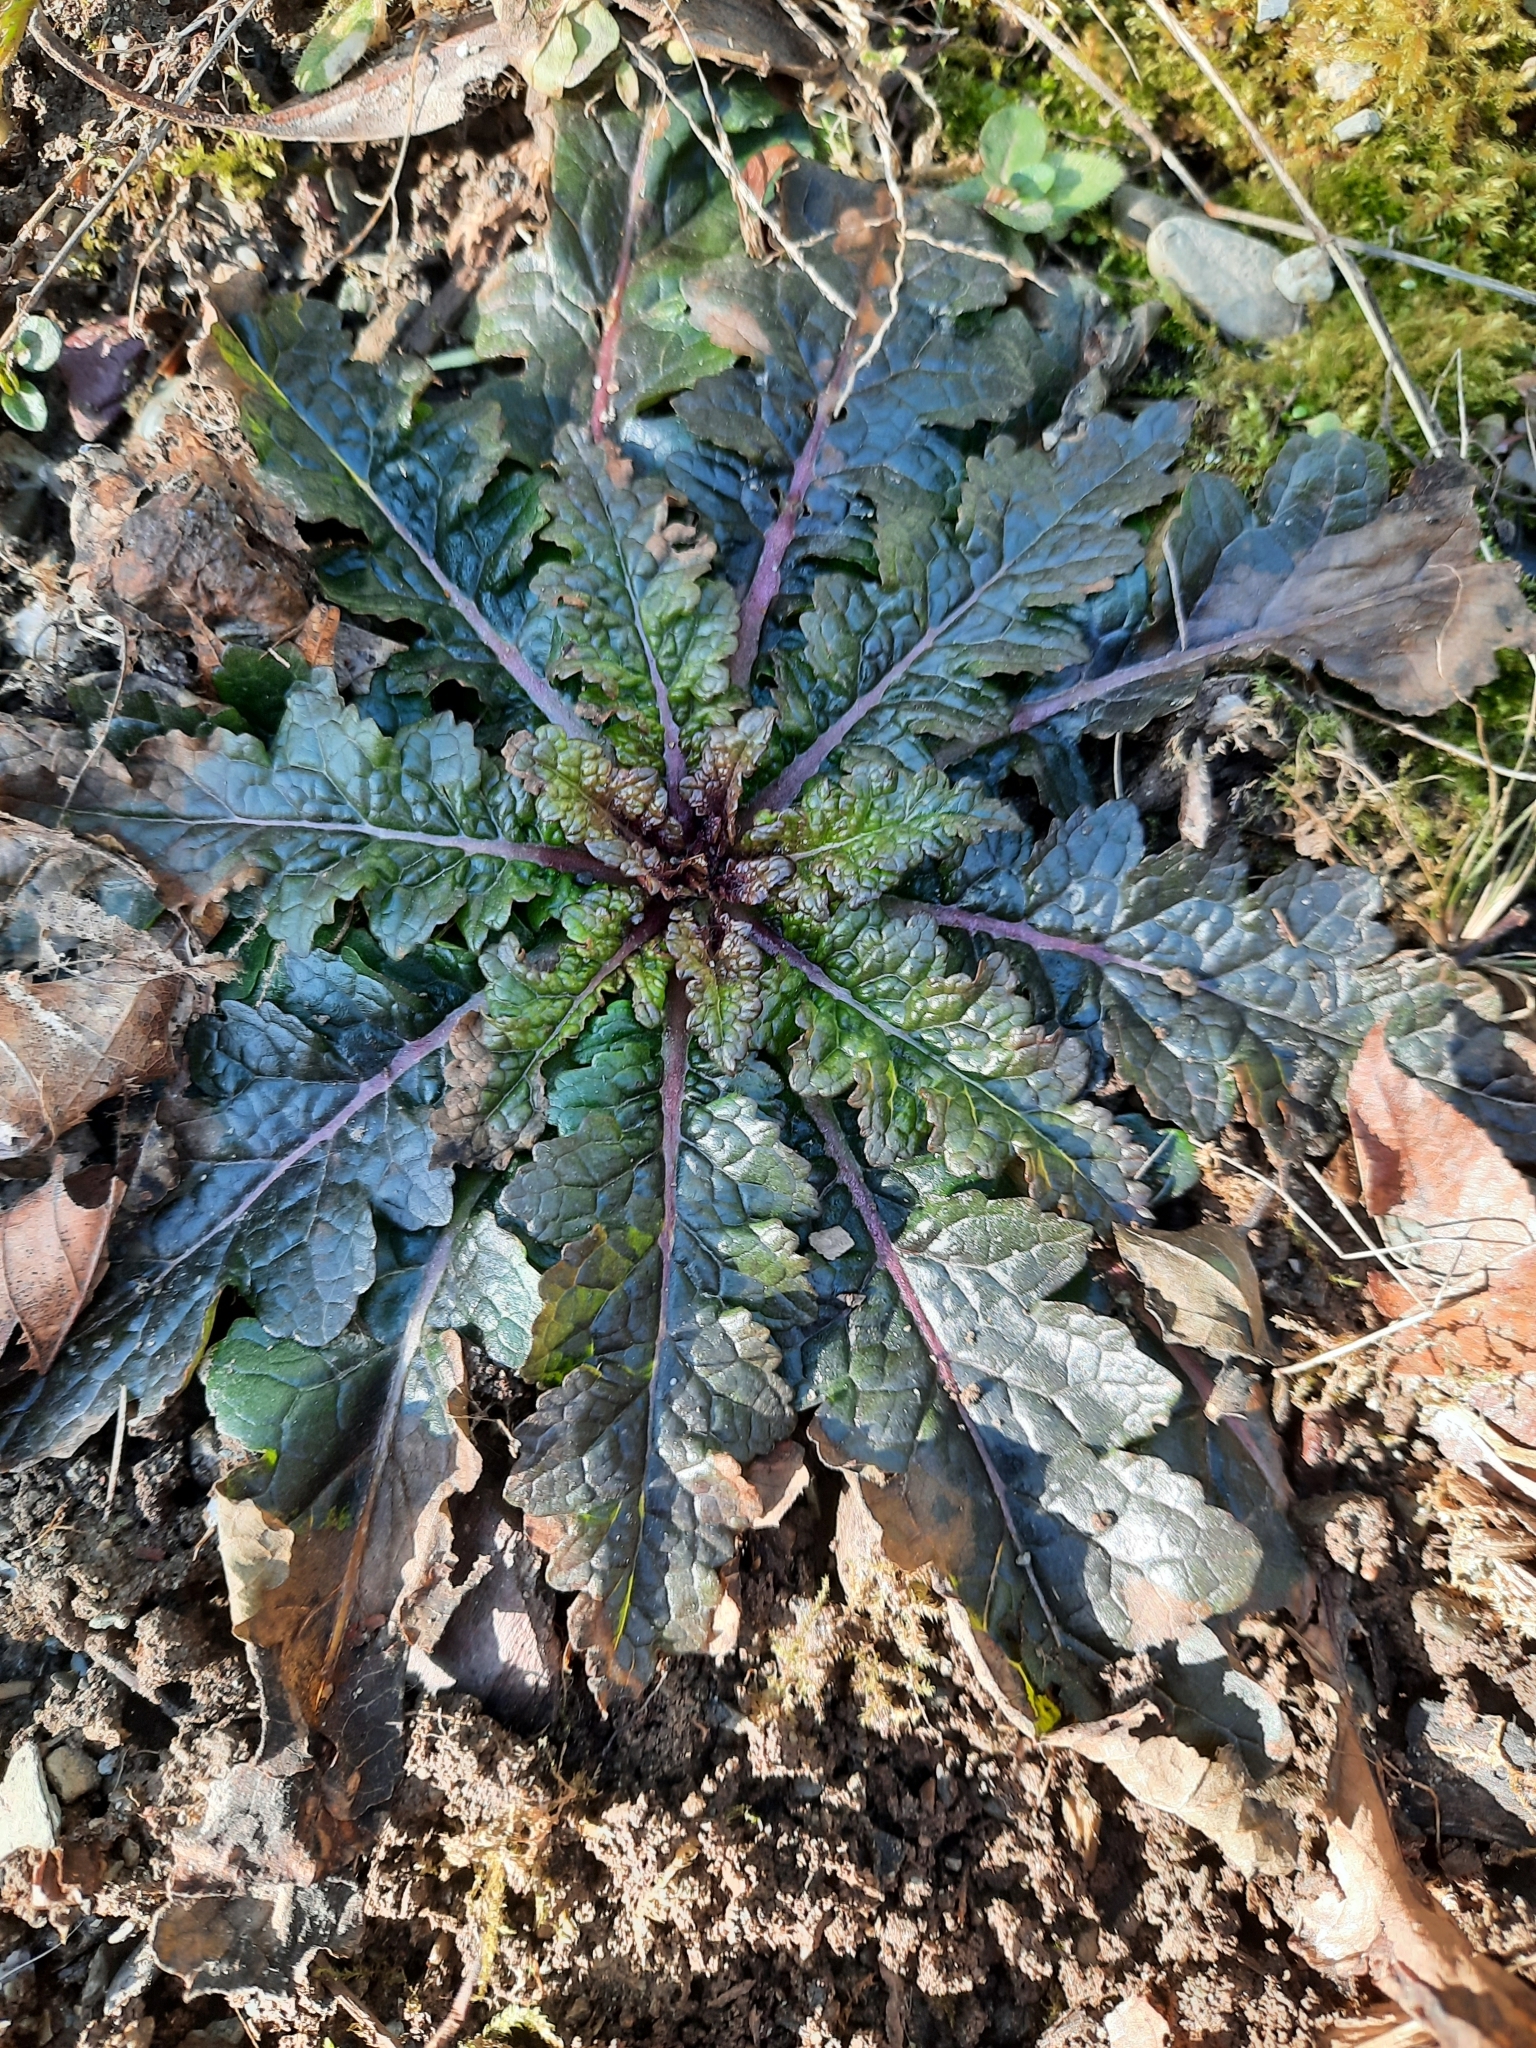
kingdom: Plantae
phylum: Tracheophyta
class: Magnoliopsida
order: Lamiales
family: Scrophulariaceae
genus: Verbascum
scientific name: Verbascum blattaria
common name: Moth mullein
